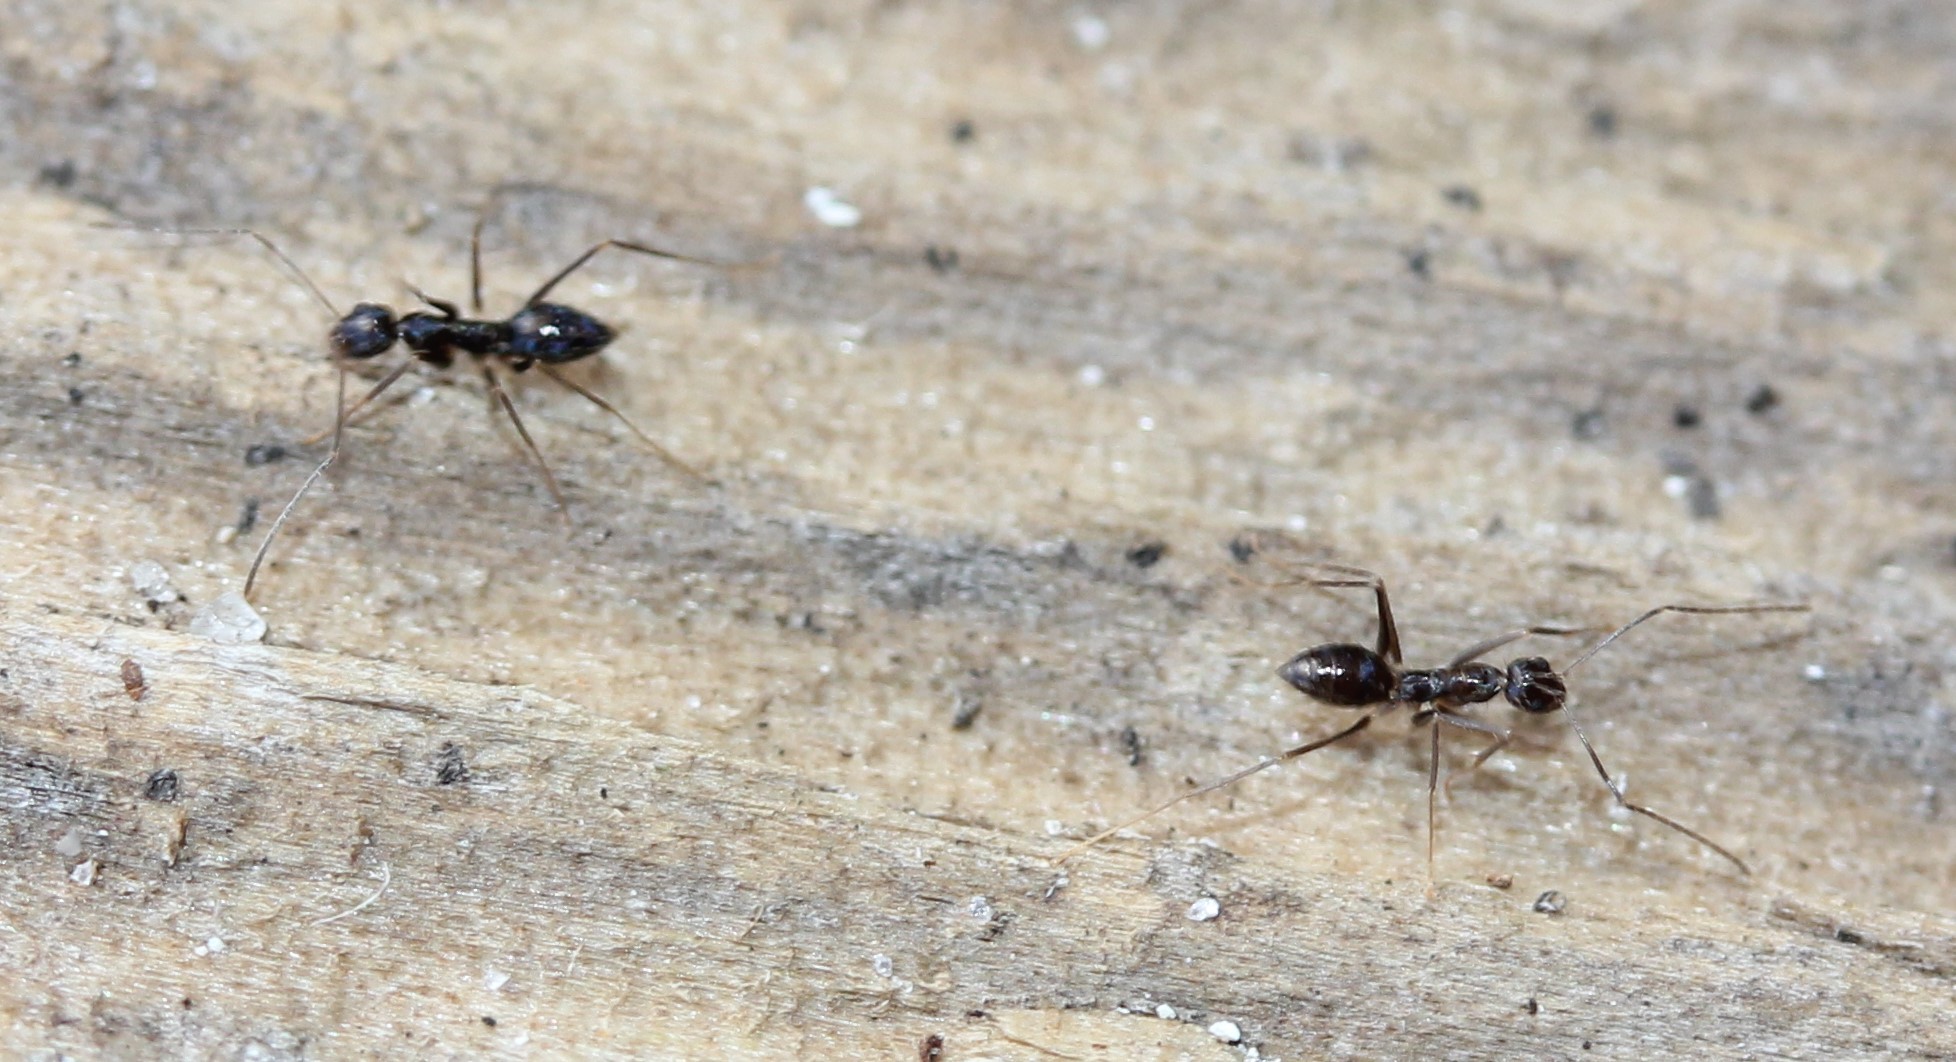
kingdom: Animalia
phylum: Arthropoda
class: Insecta
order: Hymenoptera
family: Formicidae
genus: Paratrechina
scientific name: Paratrechina longicornis
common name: Longhorned crazy ant
